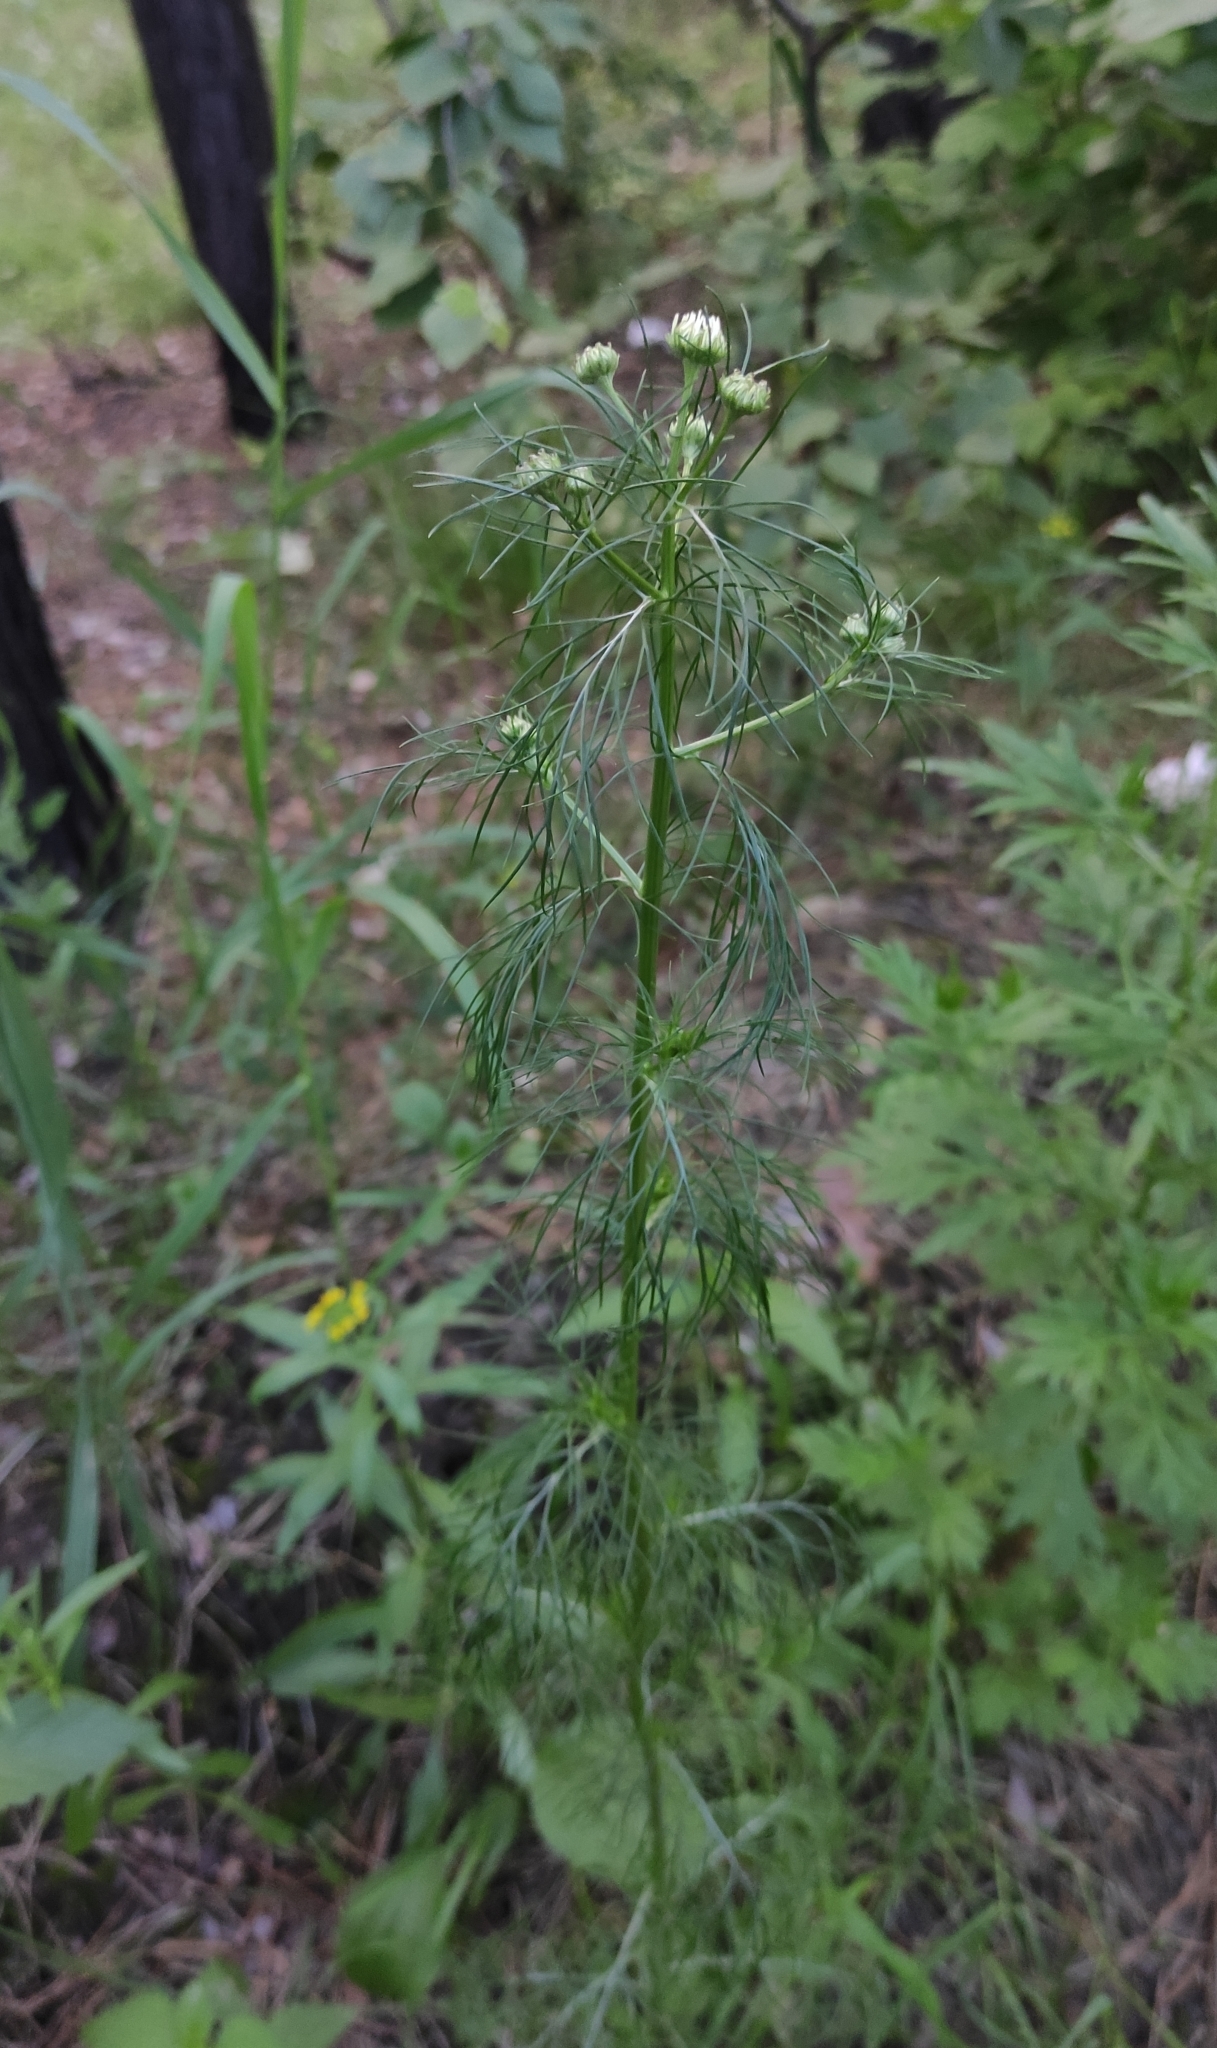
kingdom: Plantae
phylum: Tracheophyta
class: Magnoliopsida
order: Asterales
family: Asteraceae
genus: Tripleurospermum
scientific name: Tripleurospermum inodorum
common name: Scentless mayweed
